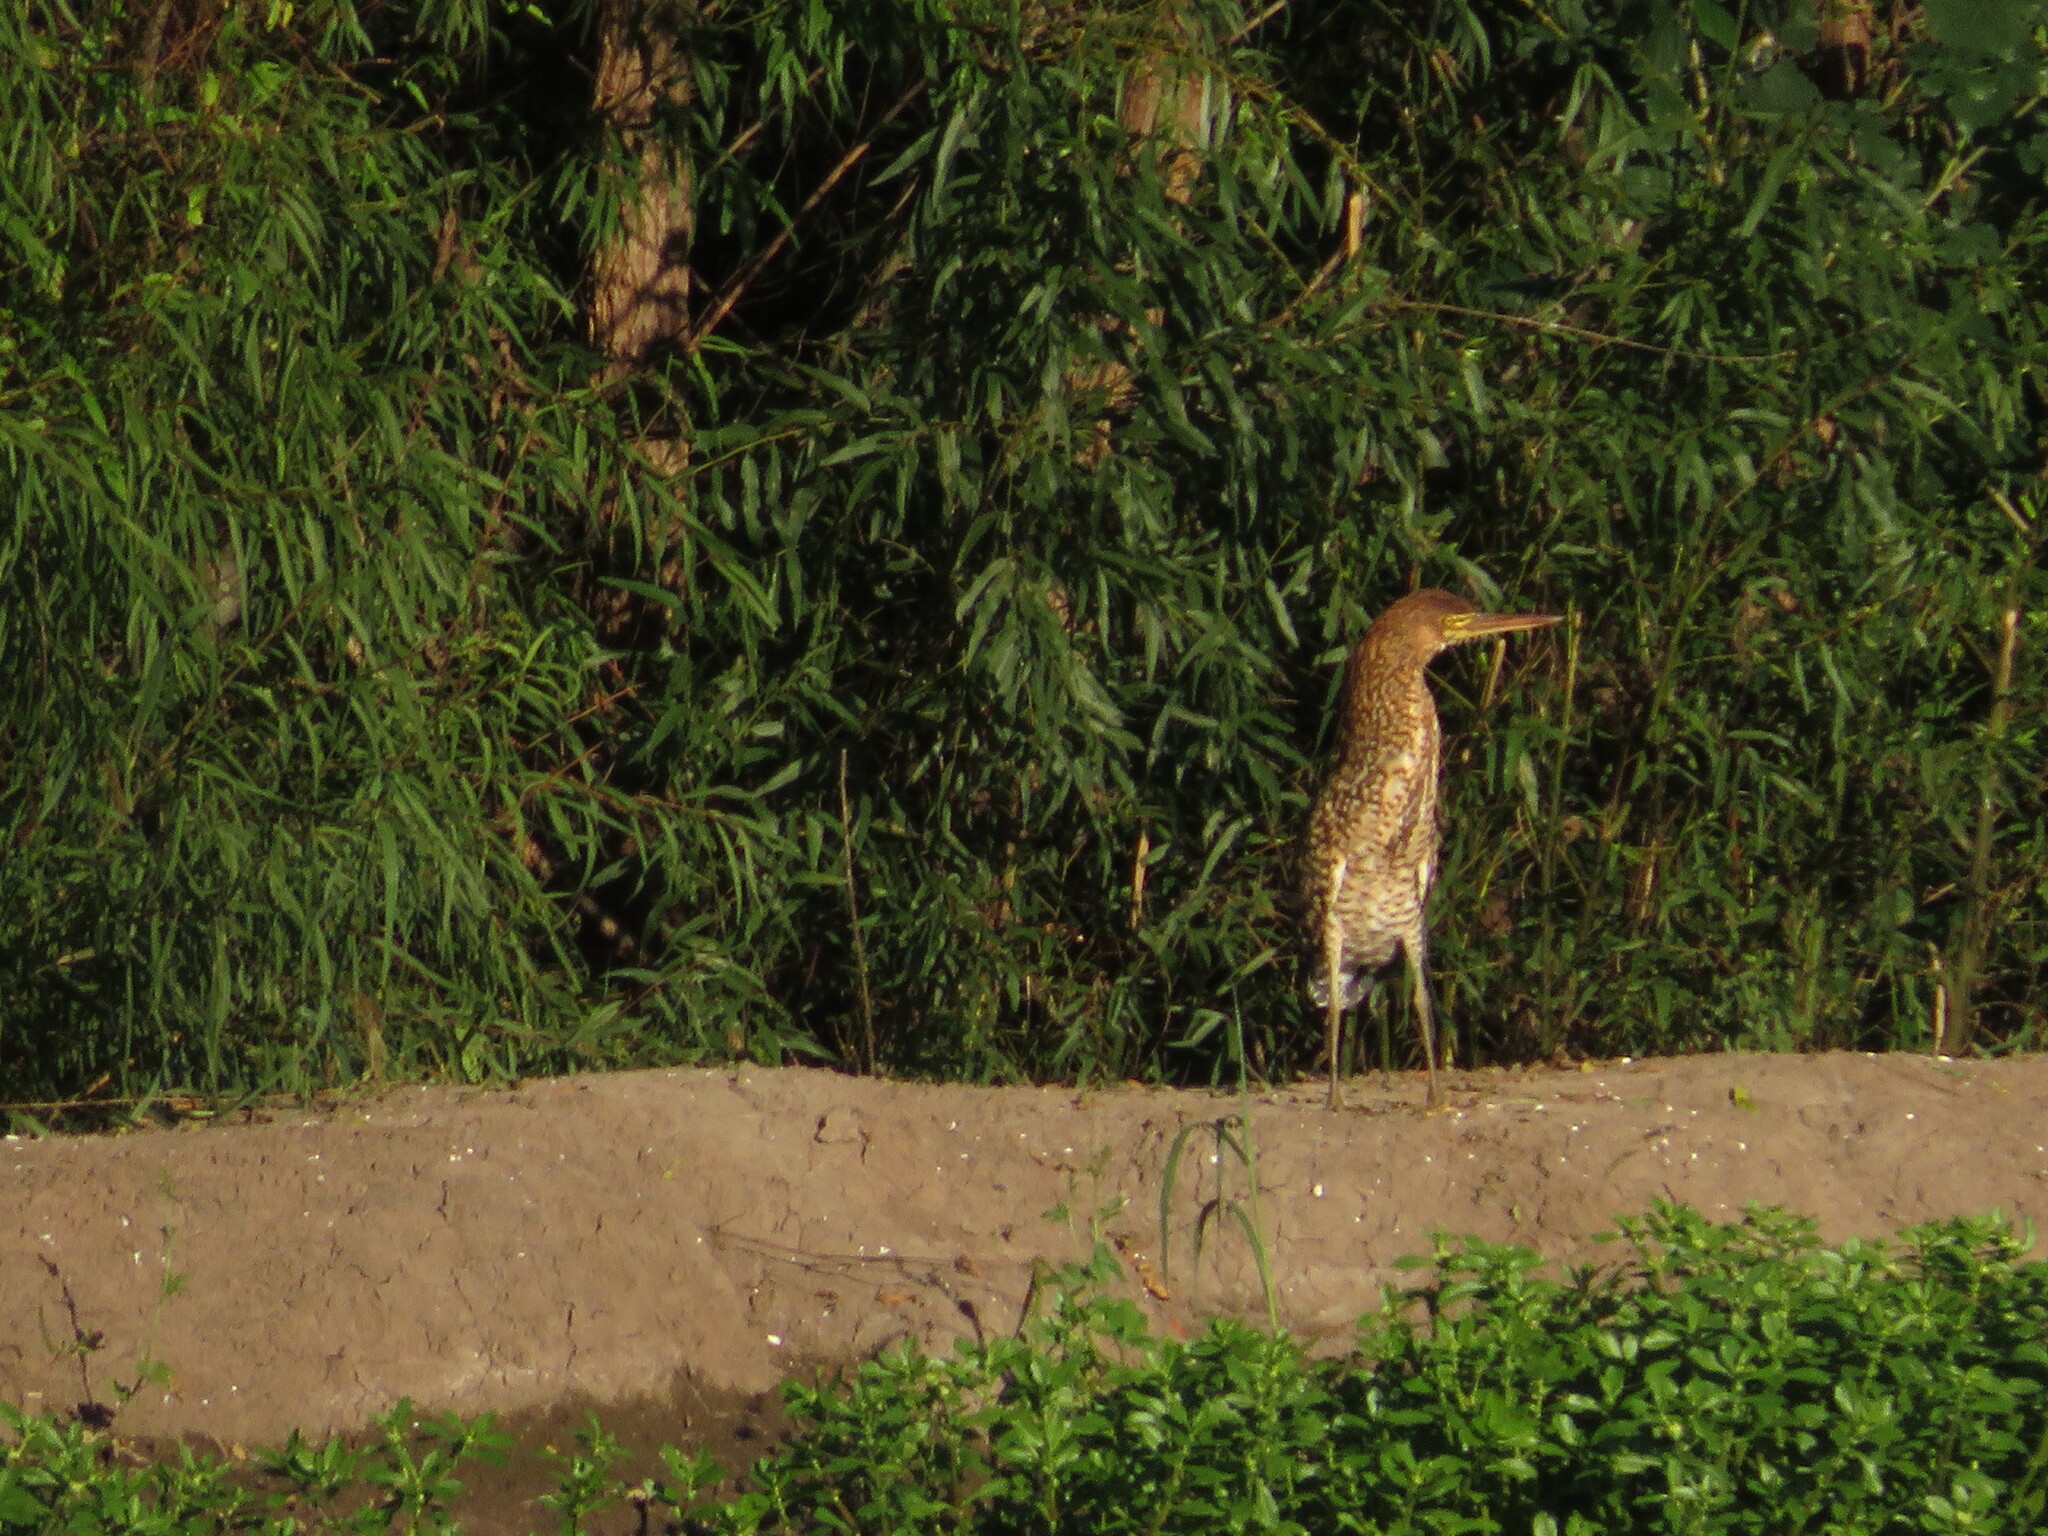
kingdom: Animalia
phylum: Chordata
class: Aves
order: Pelecaniformes
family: Ardeidae
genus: Tigrisoma
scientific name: Tigrisoma lineatum
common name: Rufescent tiger-heron
